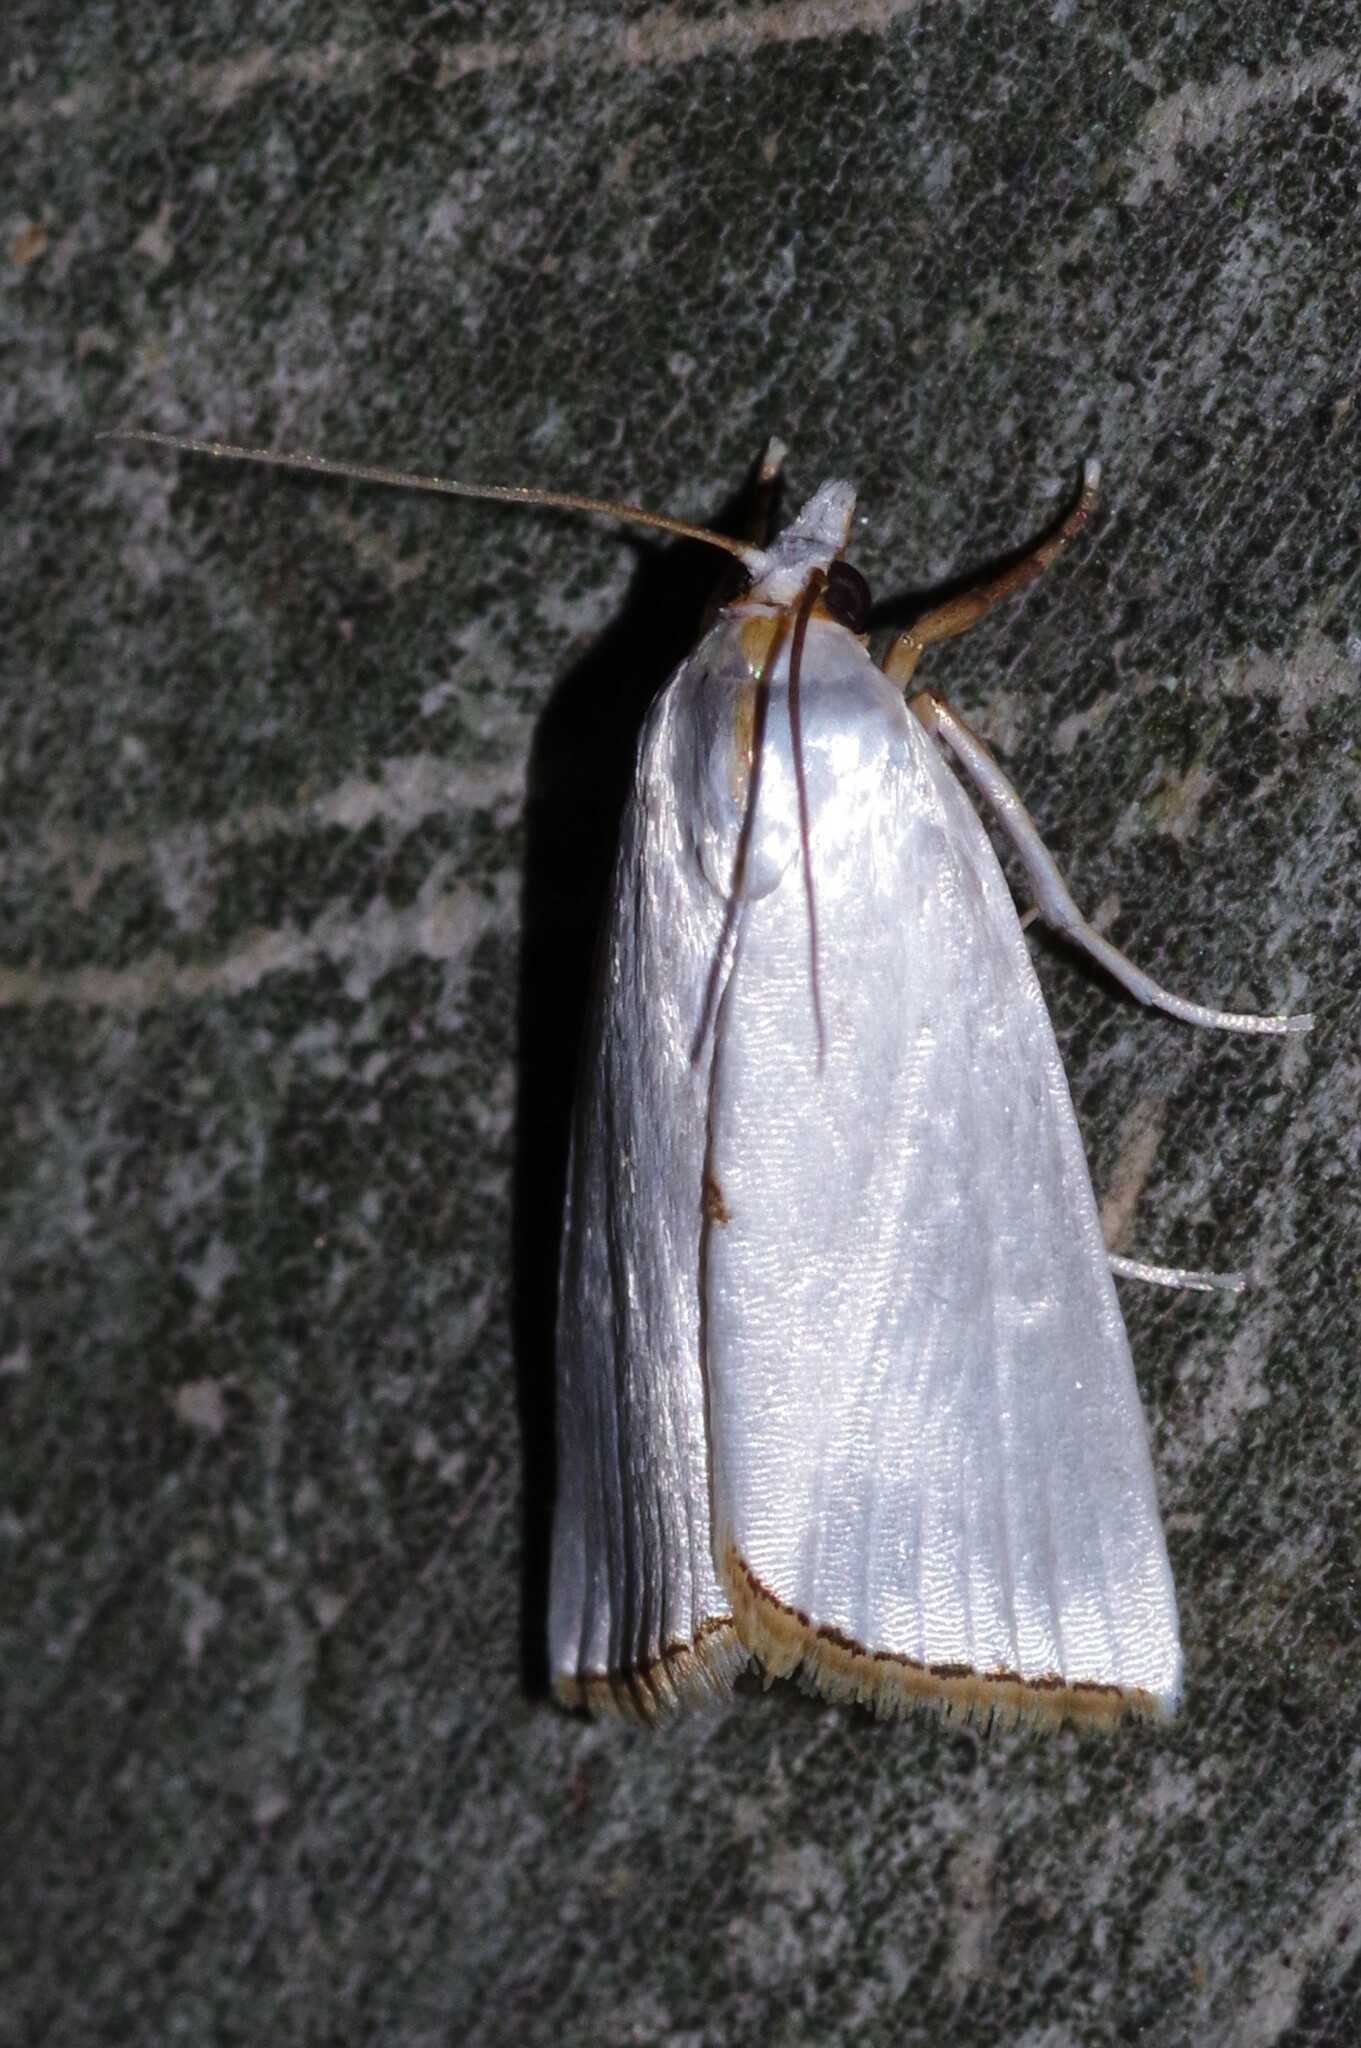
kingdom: Animalia
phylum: Arthropoda
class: Insecta
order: Lepidoptera
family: Crambidae
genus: Argyria
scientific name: Argyria nivalis
